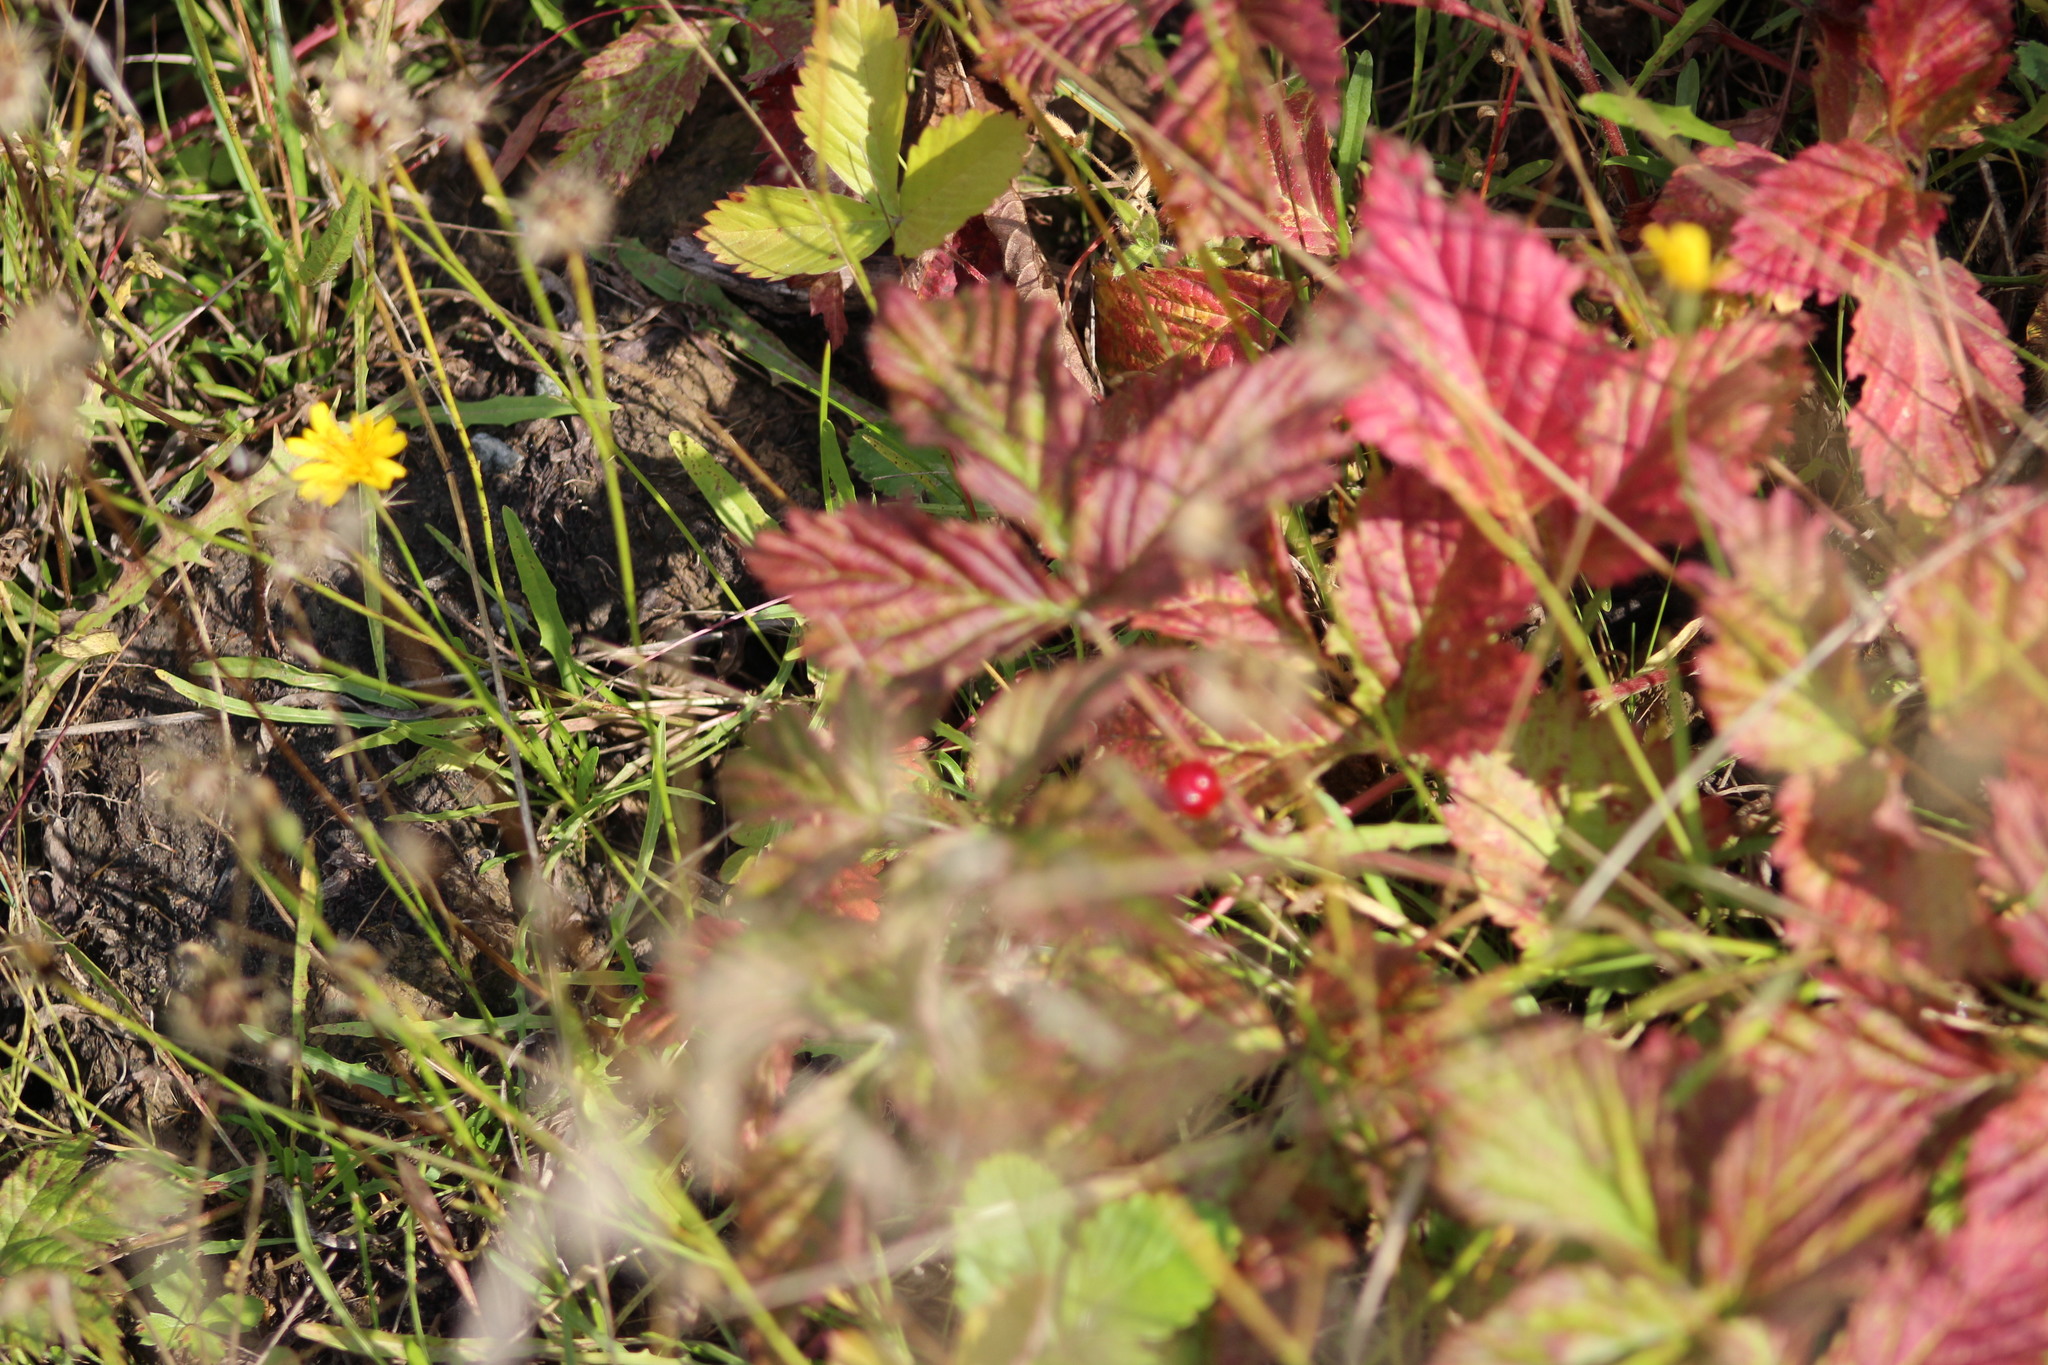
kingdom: Plantae
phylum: Tracheophyta
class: Magnoliopsida
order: Rosales
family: Rosaceae
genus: Rubus
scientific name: Rubus saxatilis
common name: Stone bramble
